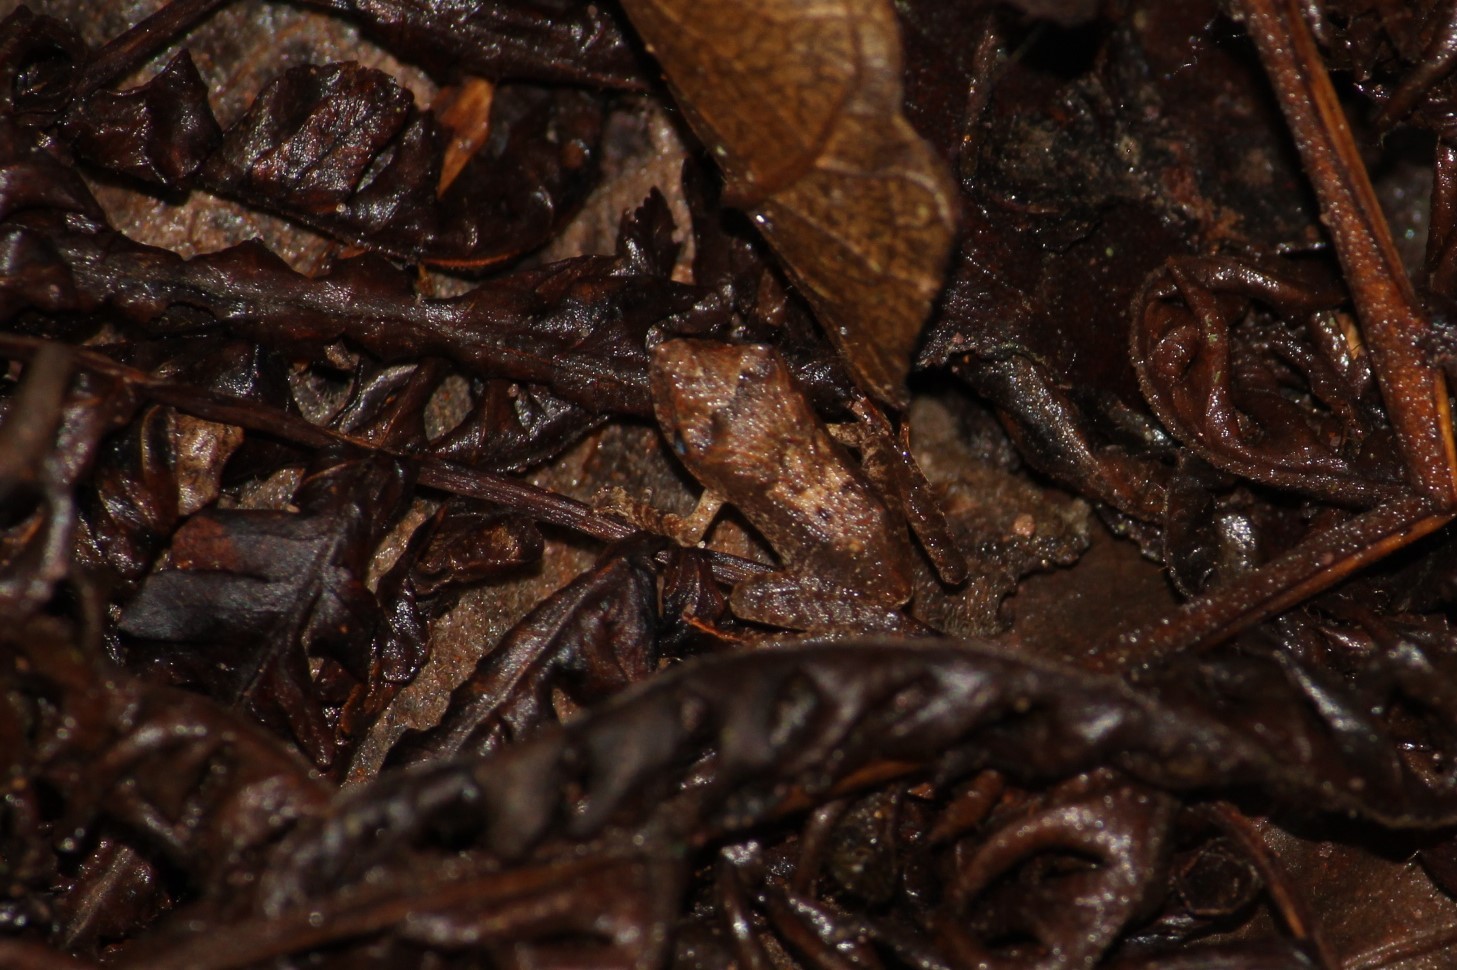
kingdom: Animalia
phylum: Chordata
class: Amphibia
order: Anura
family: Craugastoridae
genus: Haddadus
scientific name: Haddadus binotatus
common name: Clay robber frog
